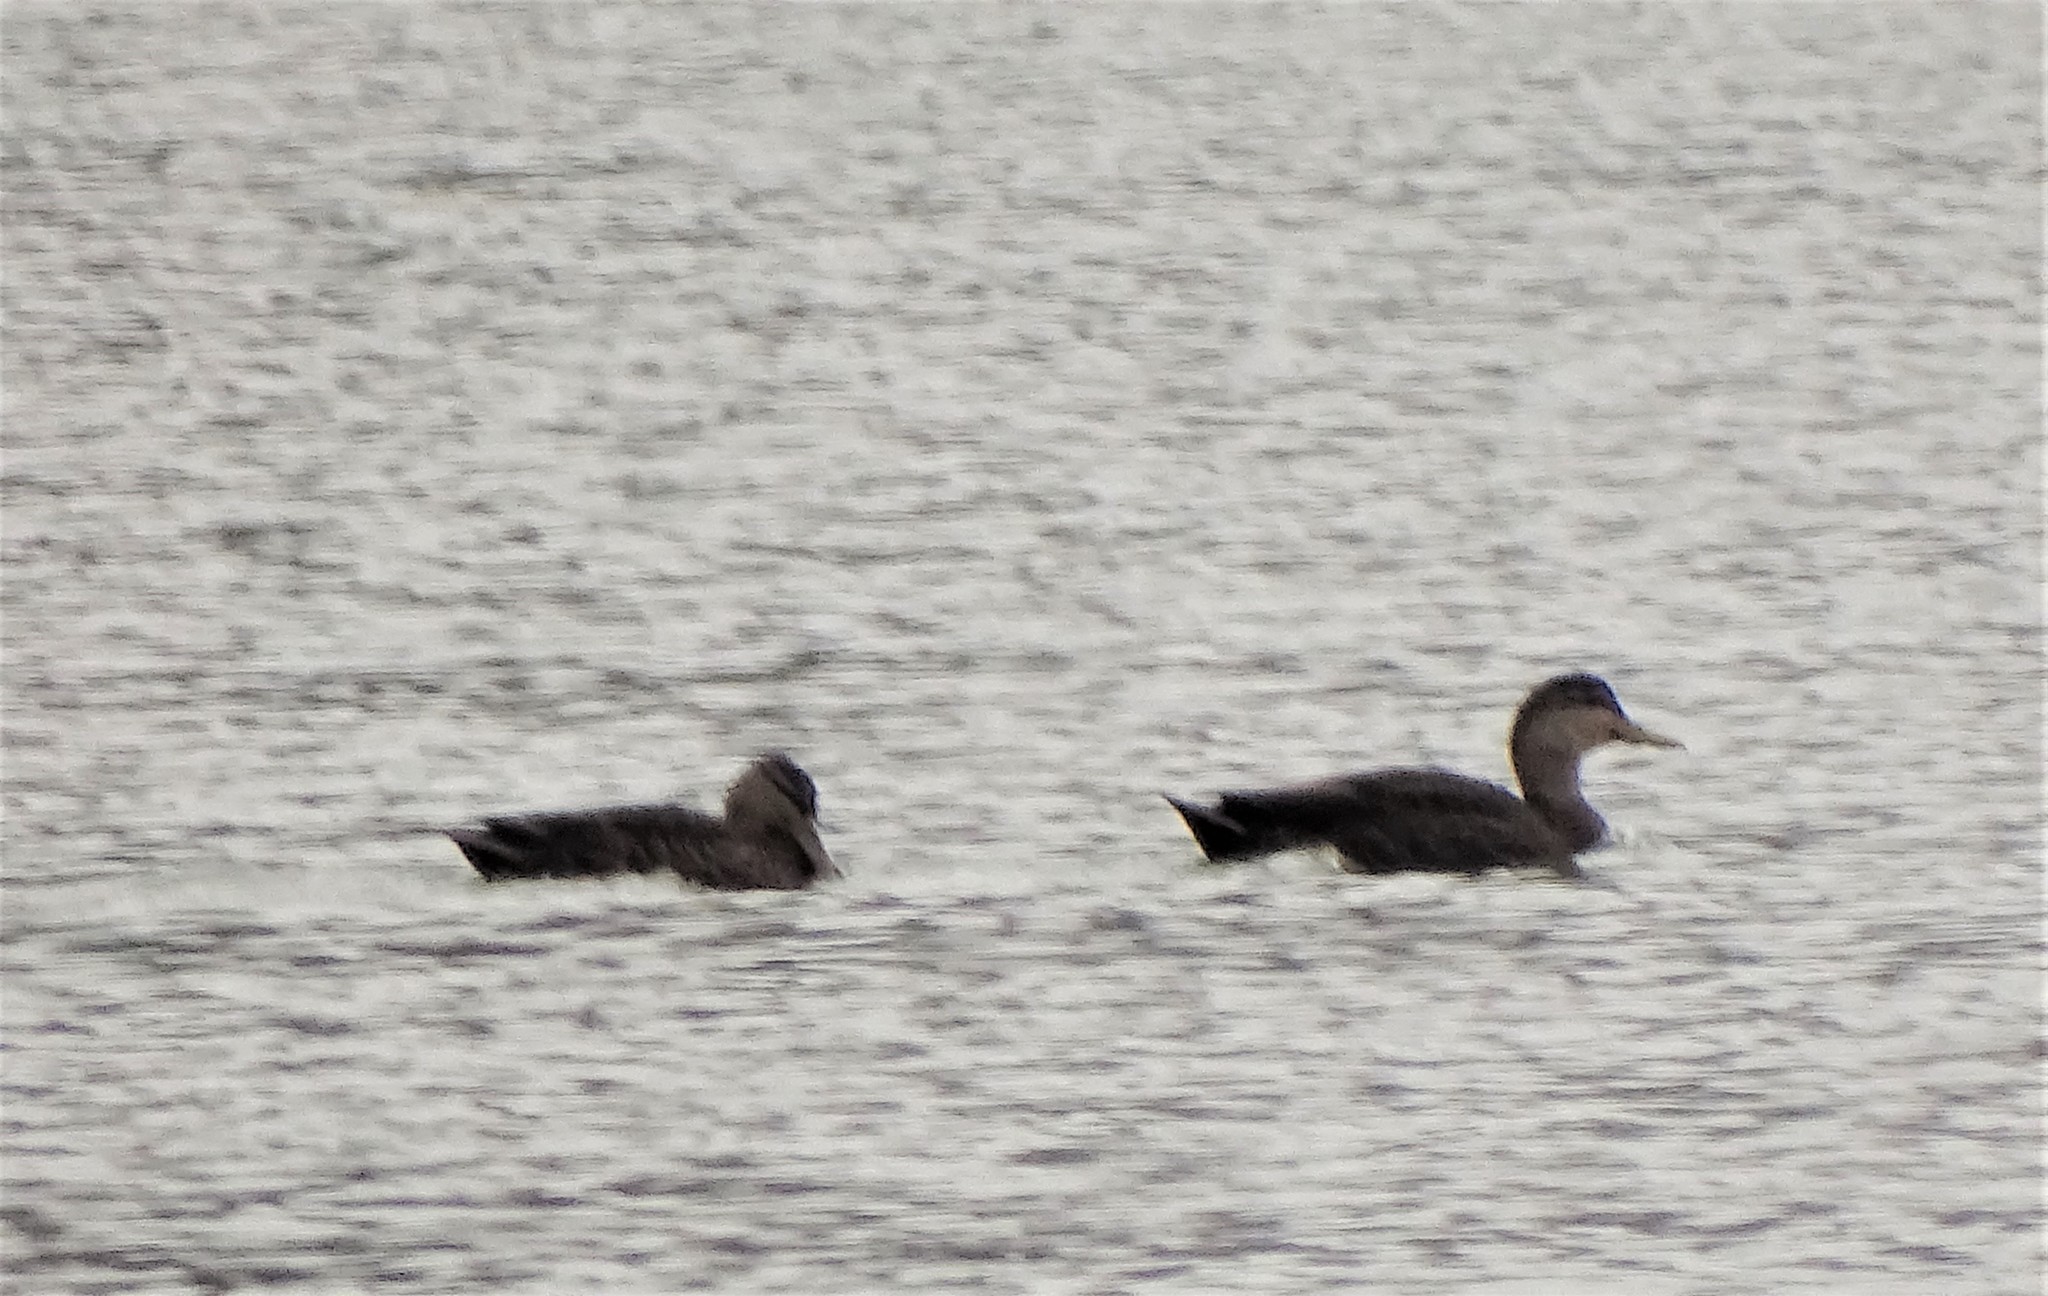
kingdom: Animalia
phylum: Chordata
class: Aves
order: Anseriformes
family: Anatidae
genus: Anas
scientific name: Anas rubripes
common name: American black duck
